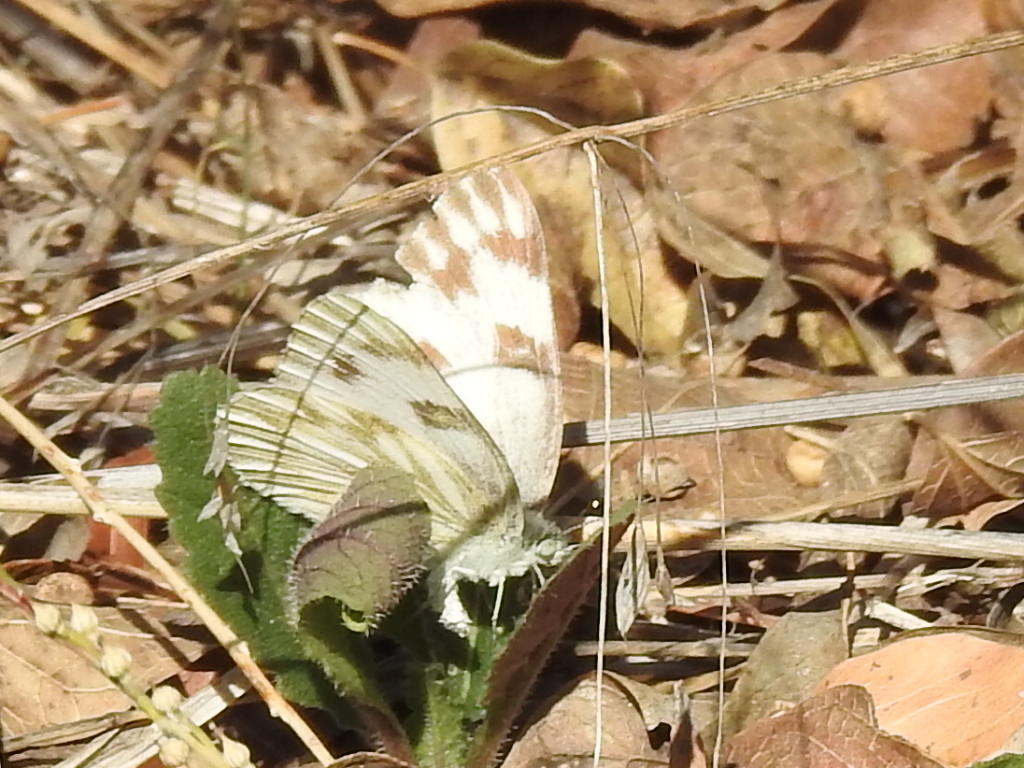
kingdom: Animalia
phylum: Arthropoda
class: Insecta
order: Lepidoptera
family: Pieridae
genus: Pontia
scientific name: Pontia protodice
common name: Checkered white
